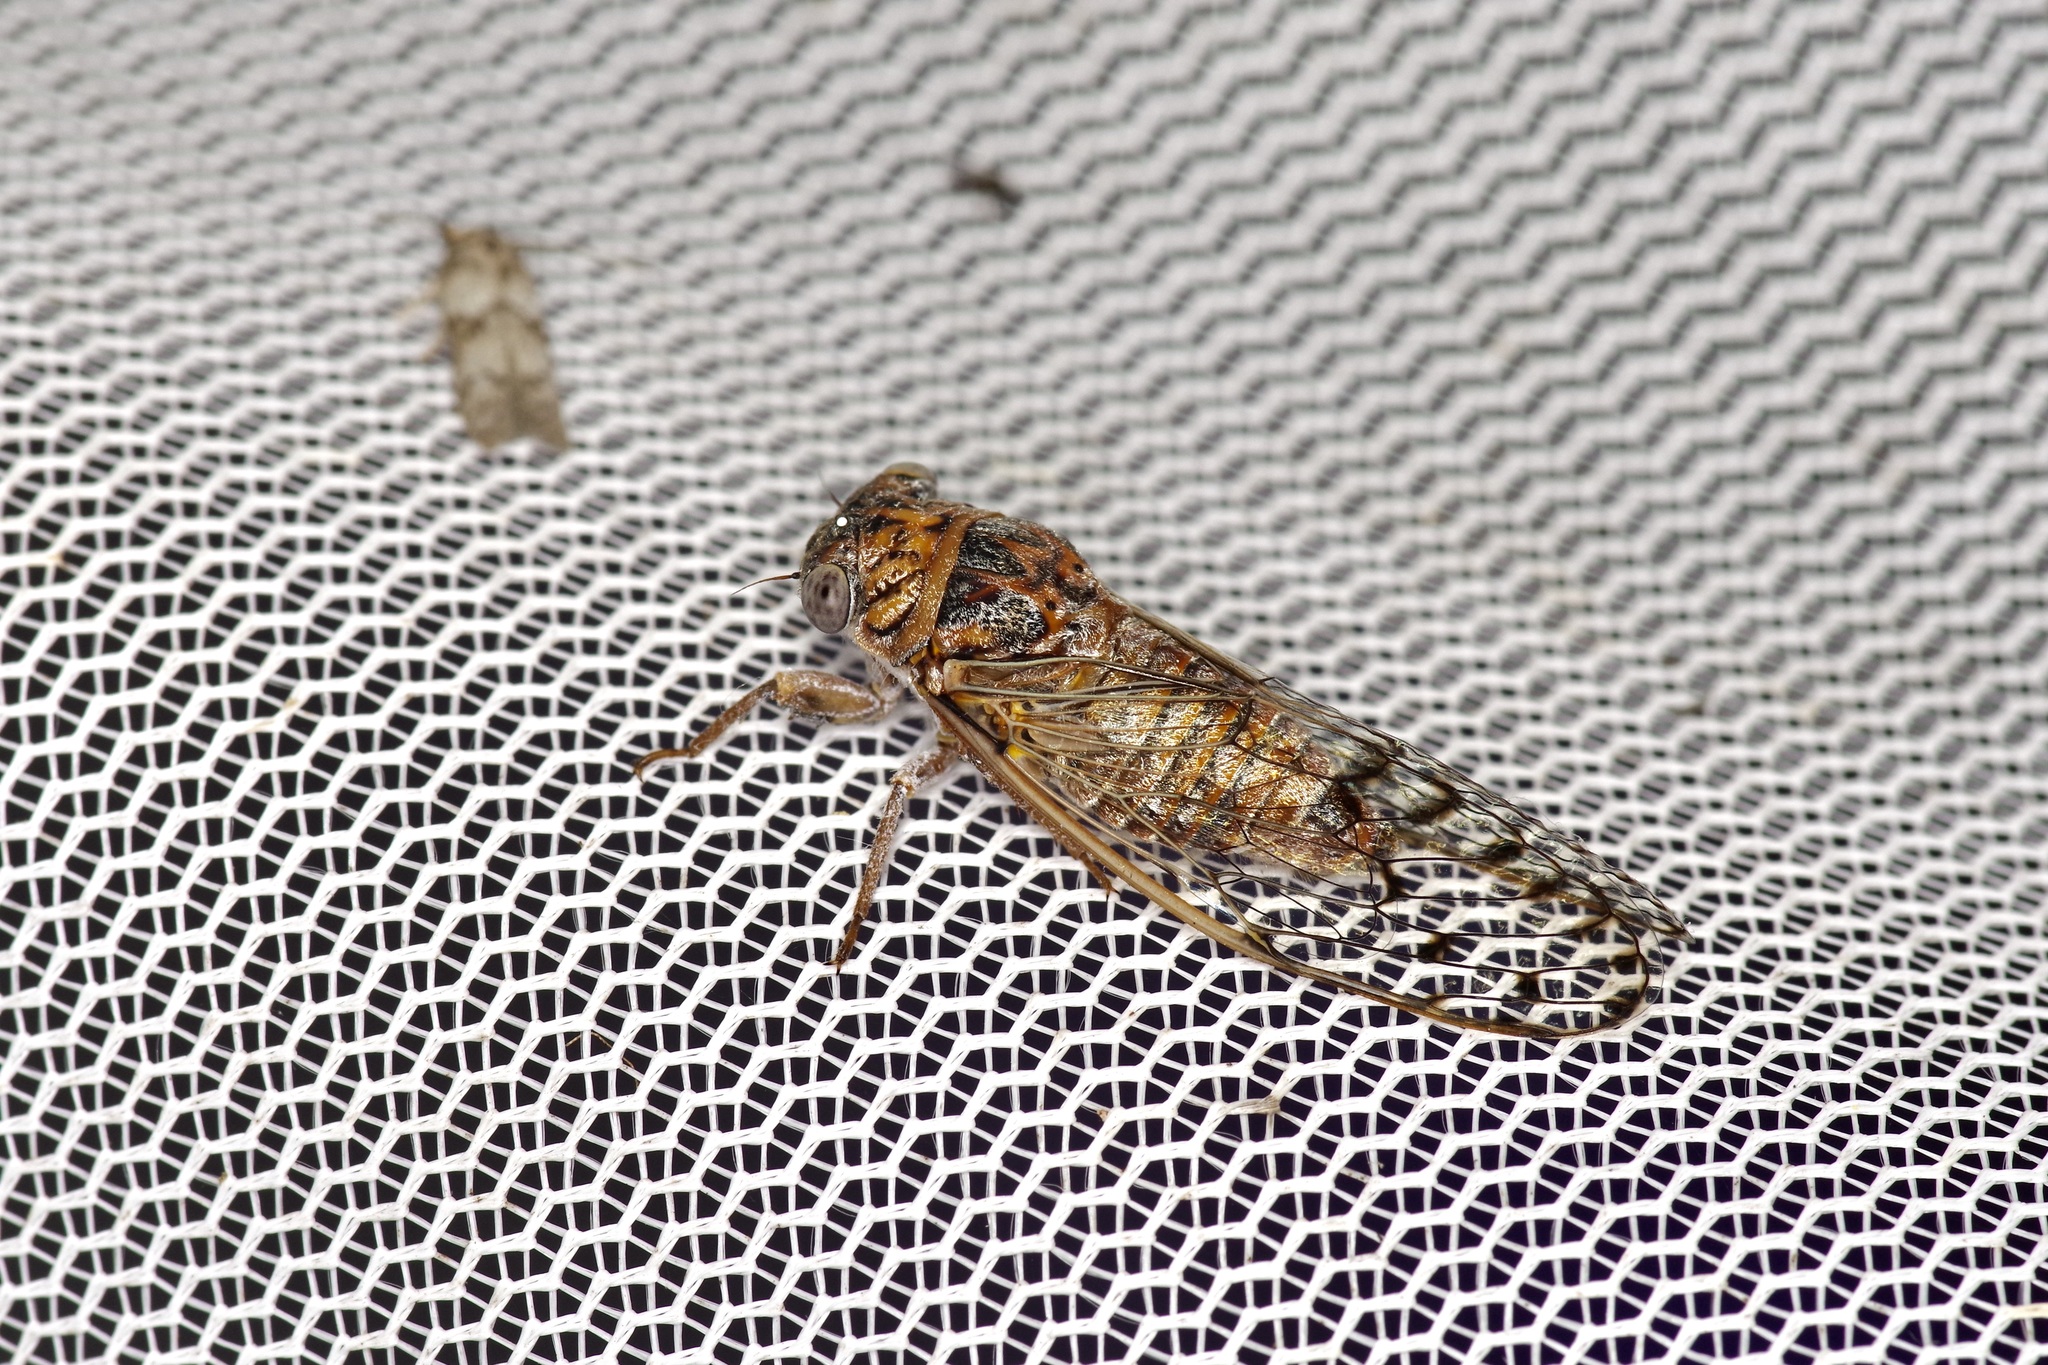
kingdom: Animalia
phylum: Arthropoda
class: Insecta
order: Hemiptera
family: Cicadidae
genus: Pacarina
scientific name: Pacarina puella
